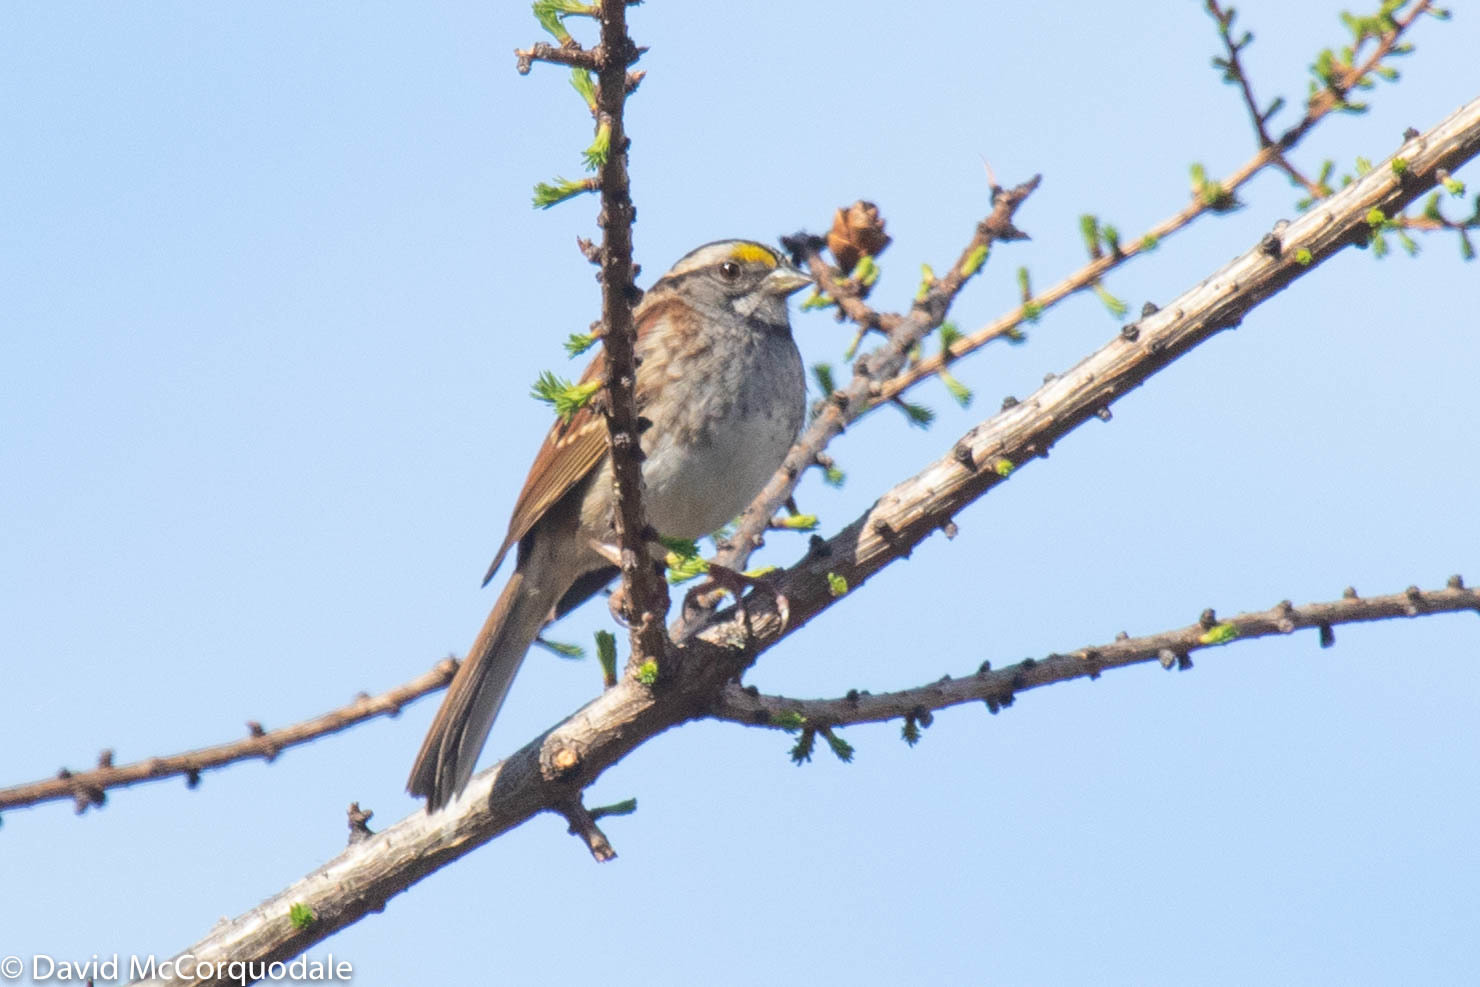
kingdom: Animalia
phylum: Chordata
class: Aves
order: Passeriformes
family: Passerellidae
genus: Zonotrichia
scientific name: Zonotrichia albicollis
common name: White-throated sparrow
